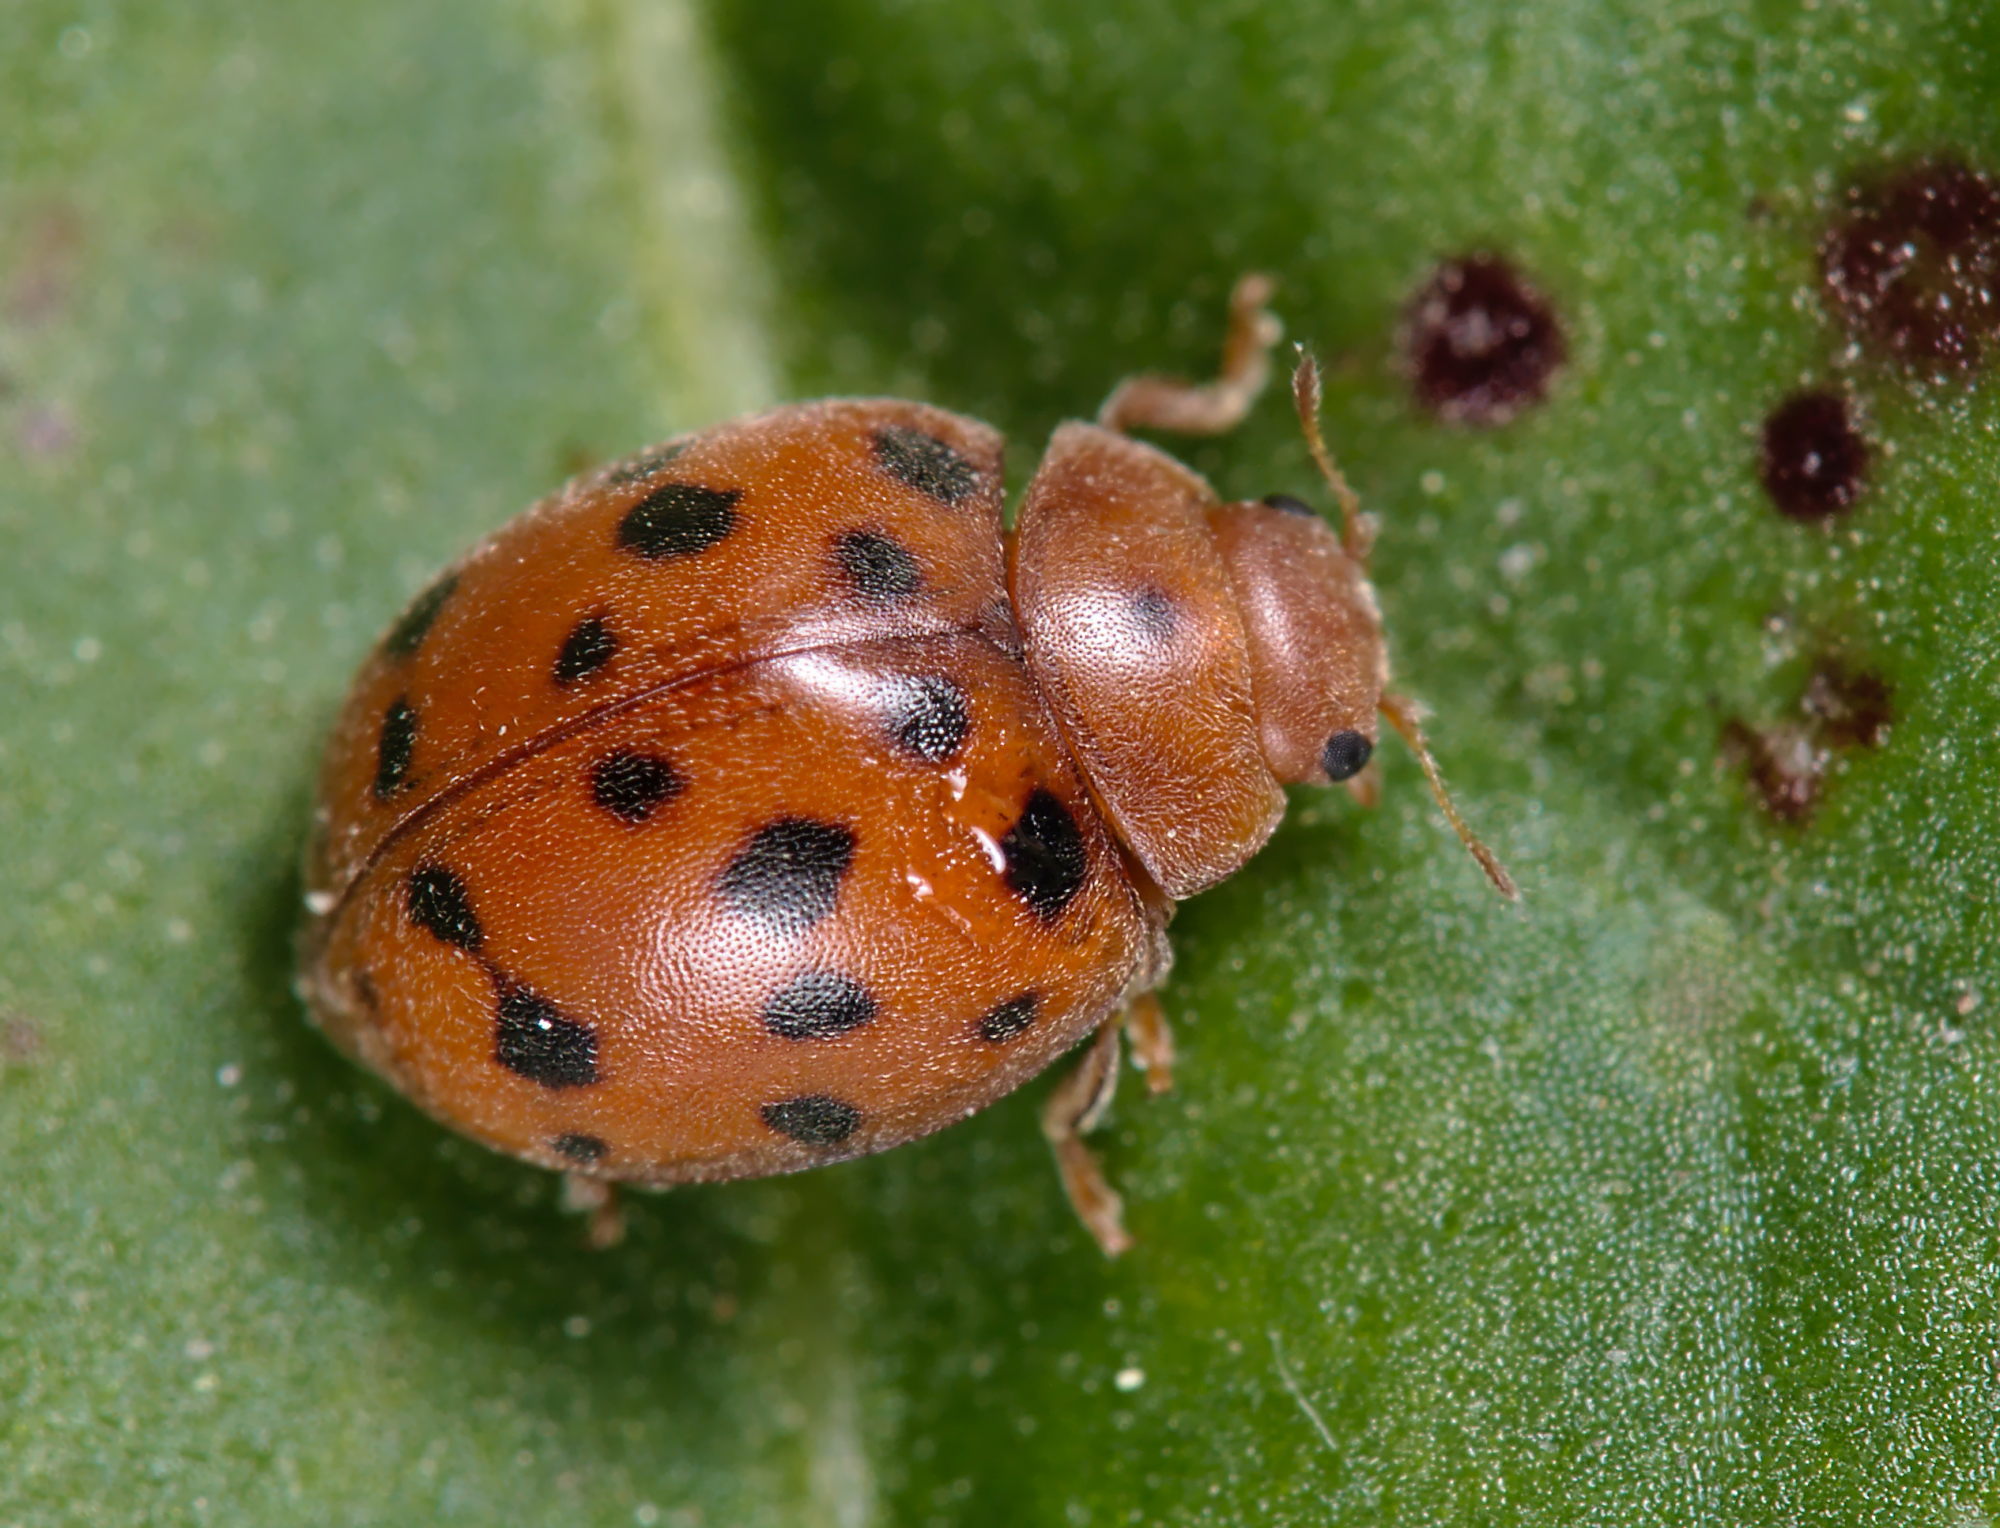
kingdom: Animalia
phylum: Arthropoda
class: Insecta
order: Coleoptera
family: Coccinellidae
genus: Subcoccinella
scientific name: Subcoccinella vigintiquatuorpunctata
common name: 24-spot ladybird
